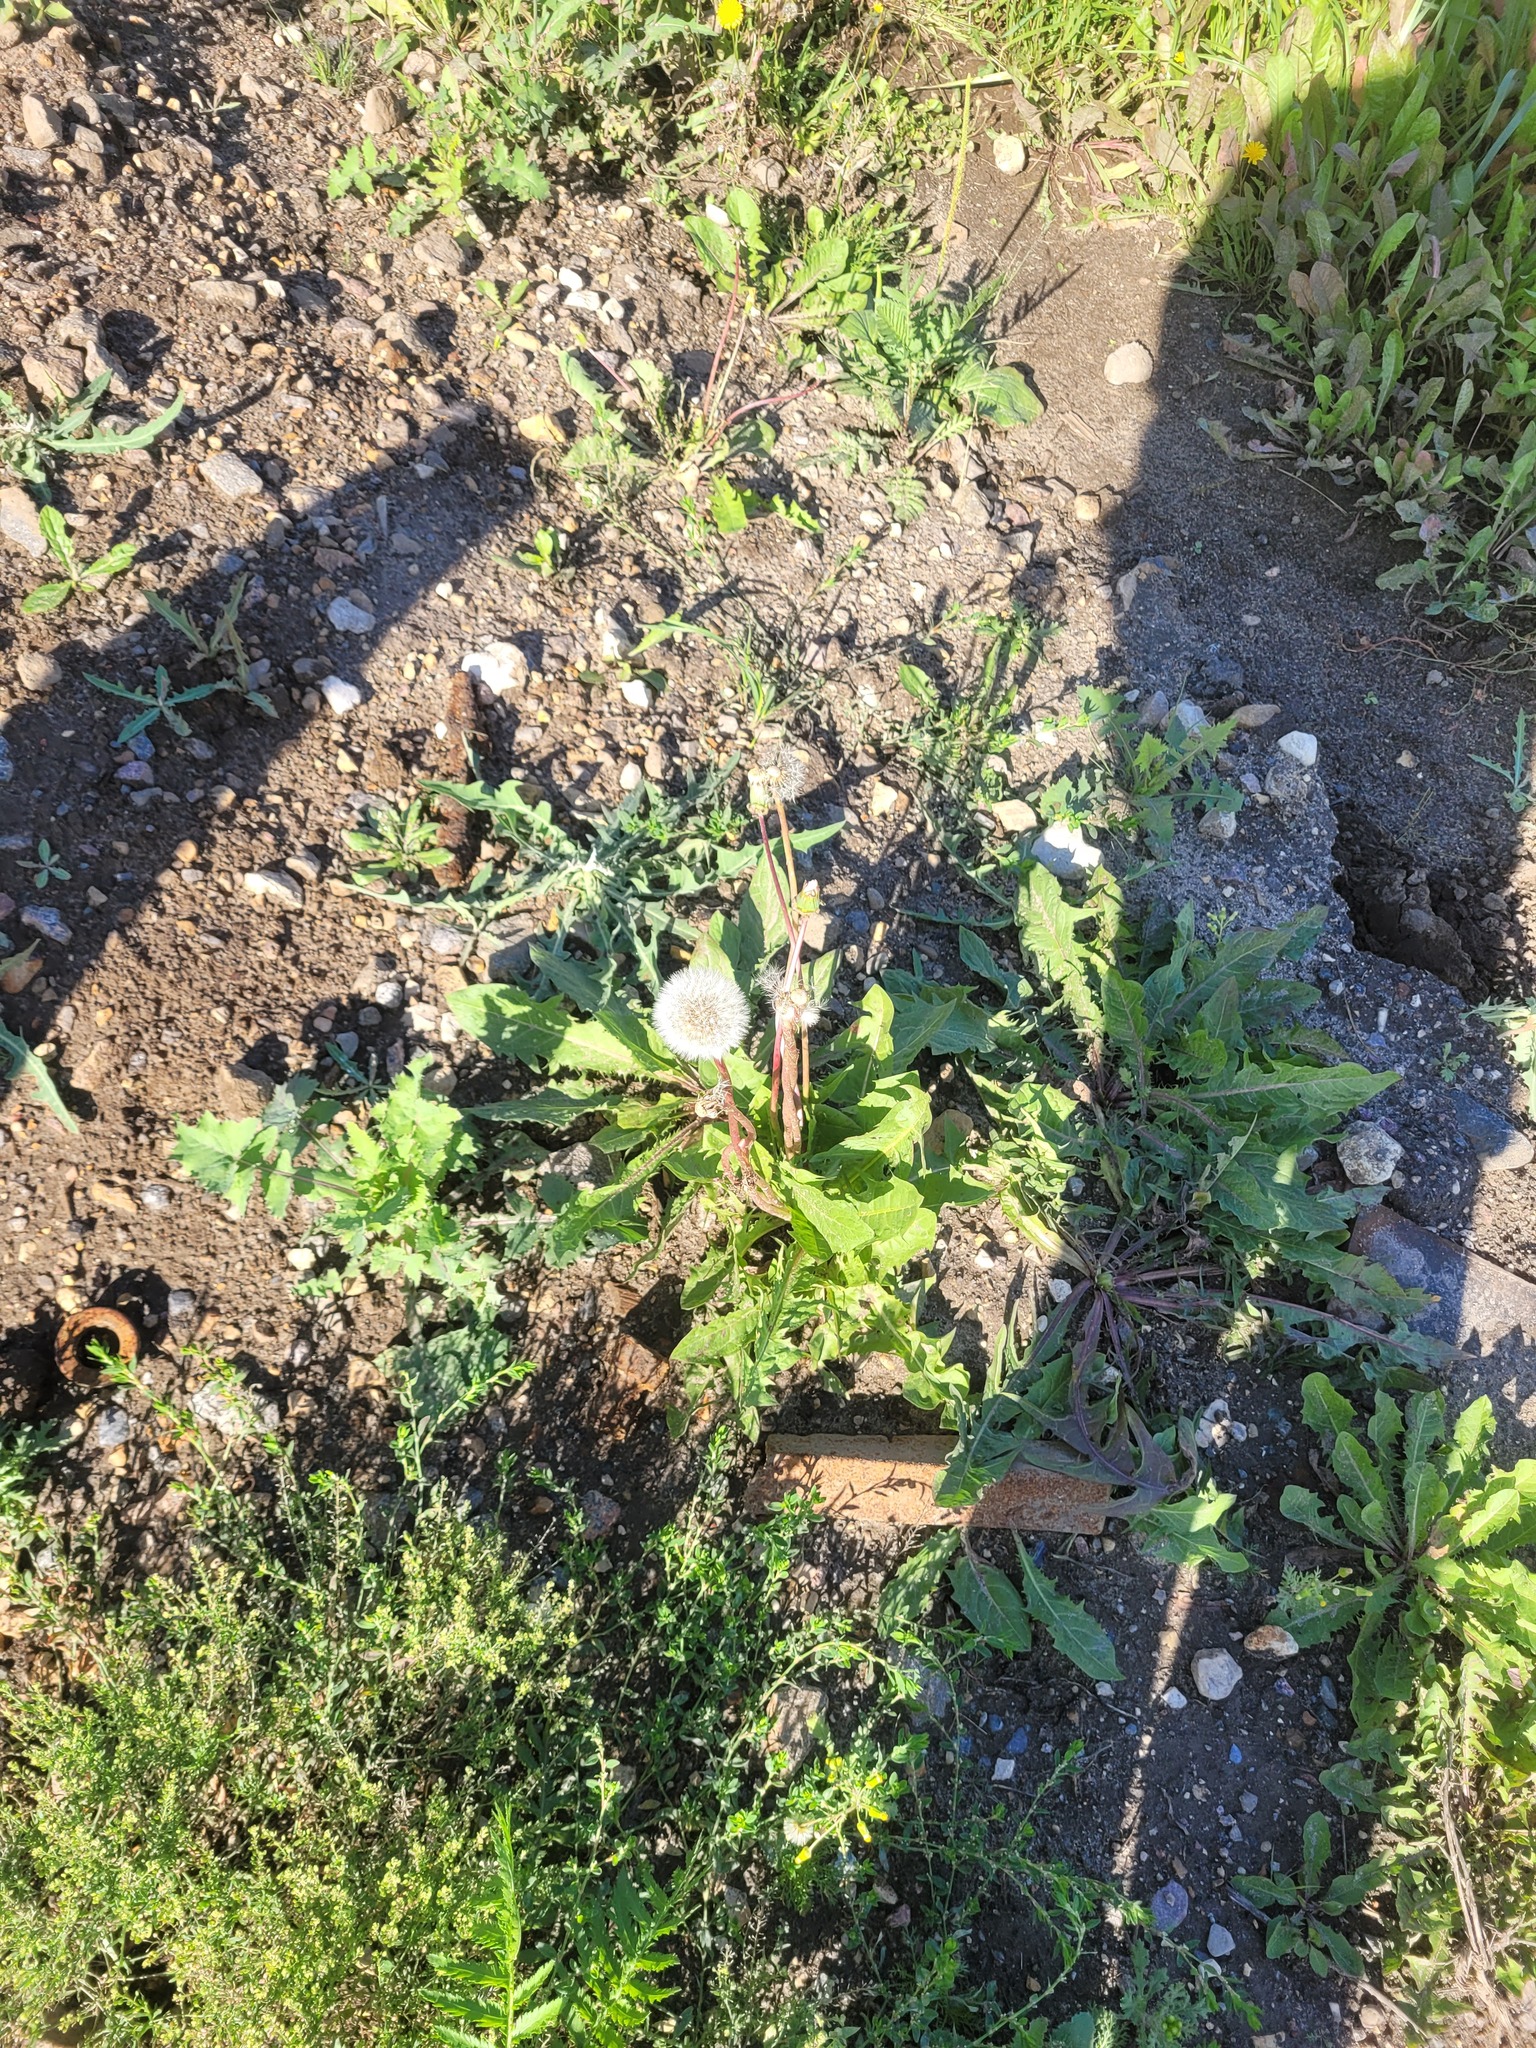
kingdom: Plantae
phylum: Tracheophyta
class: Magnoliopsida
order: Asterales
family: Asteraceae
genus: Taraxacum
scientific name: Taraxacum officinale
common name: Common dandelion
